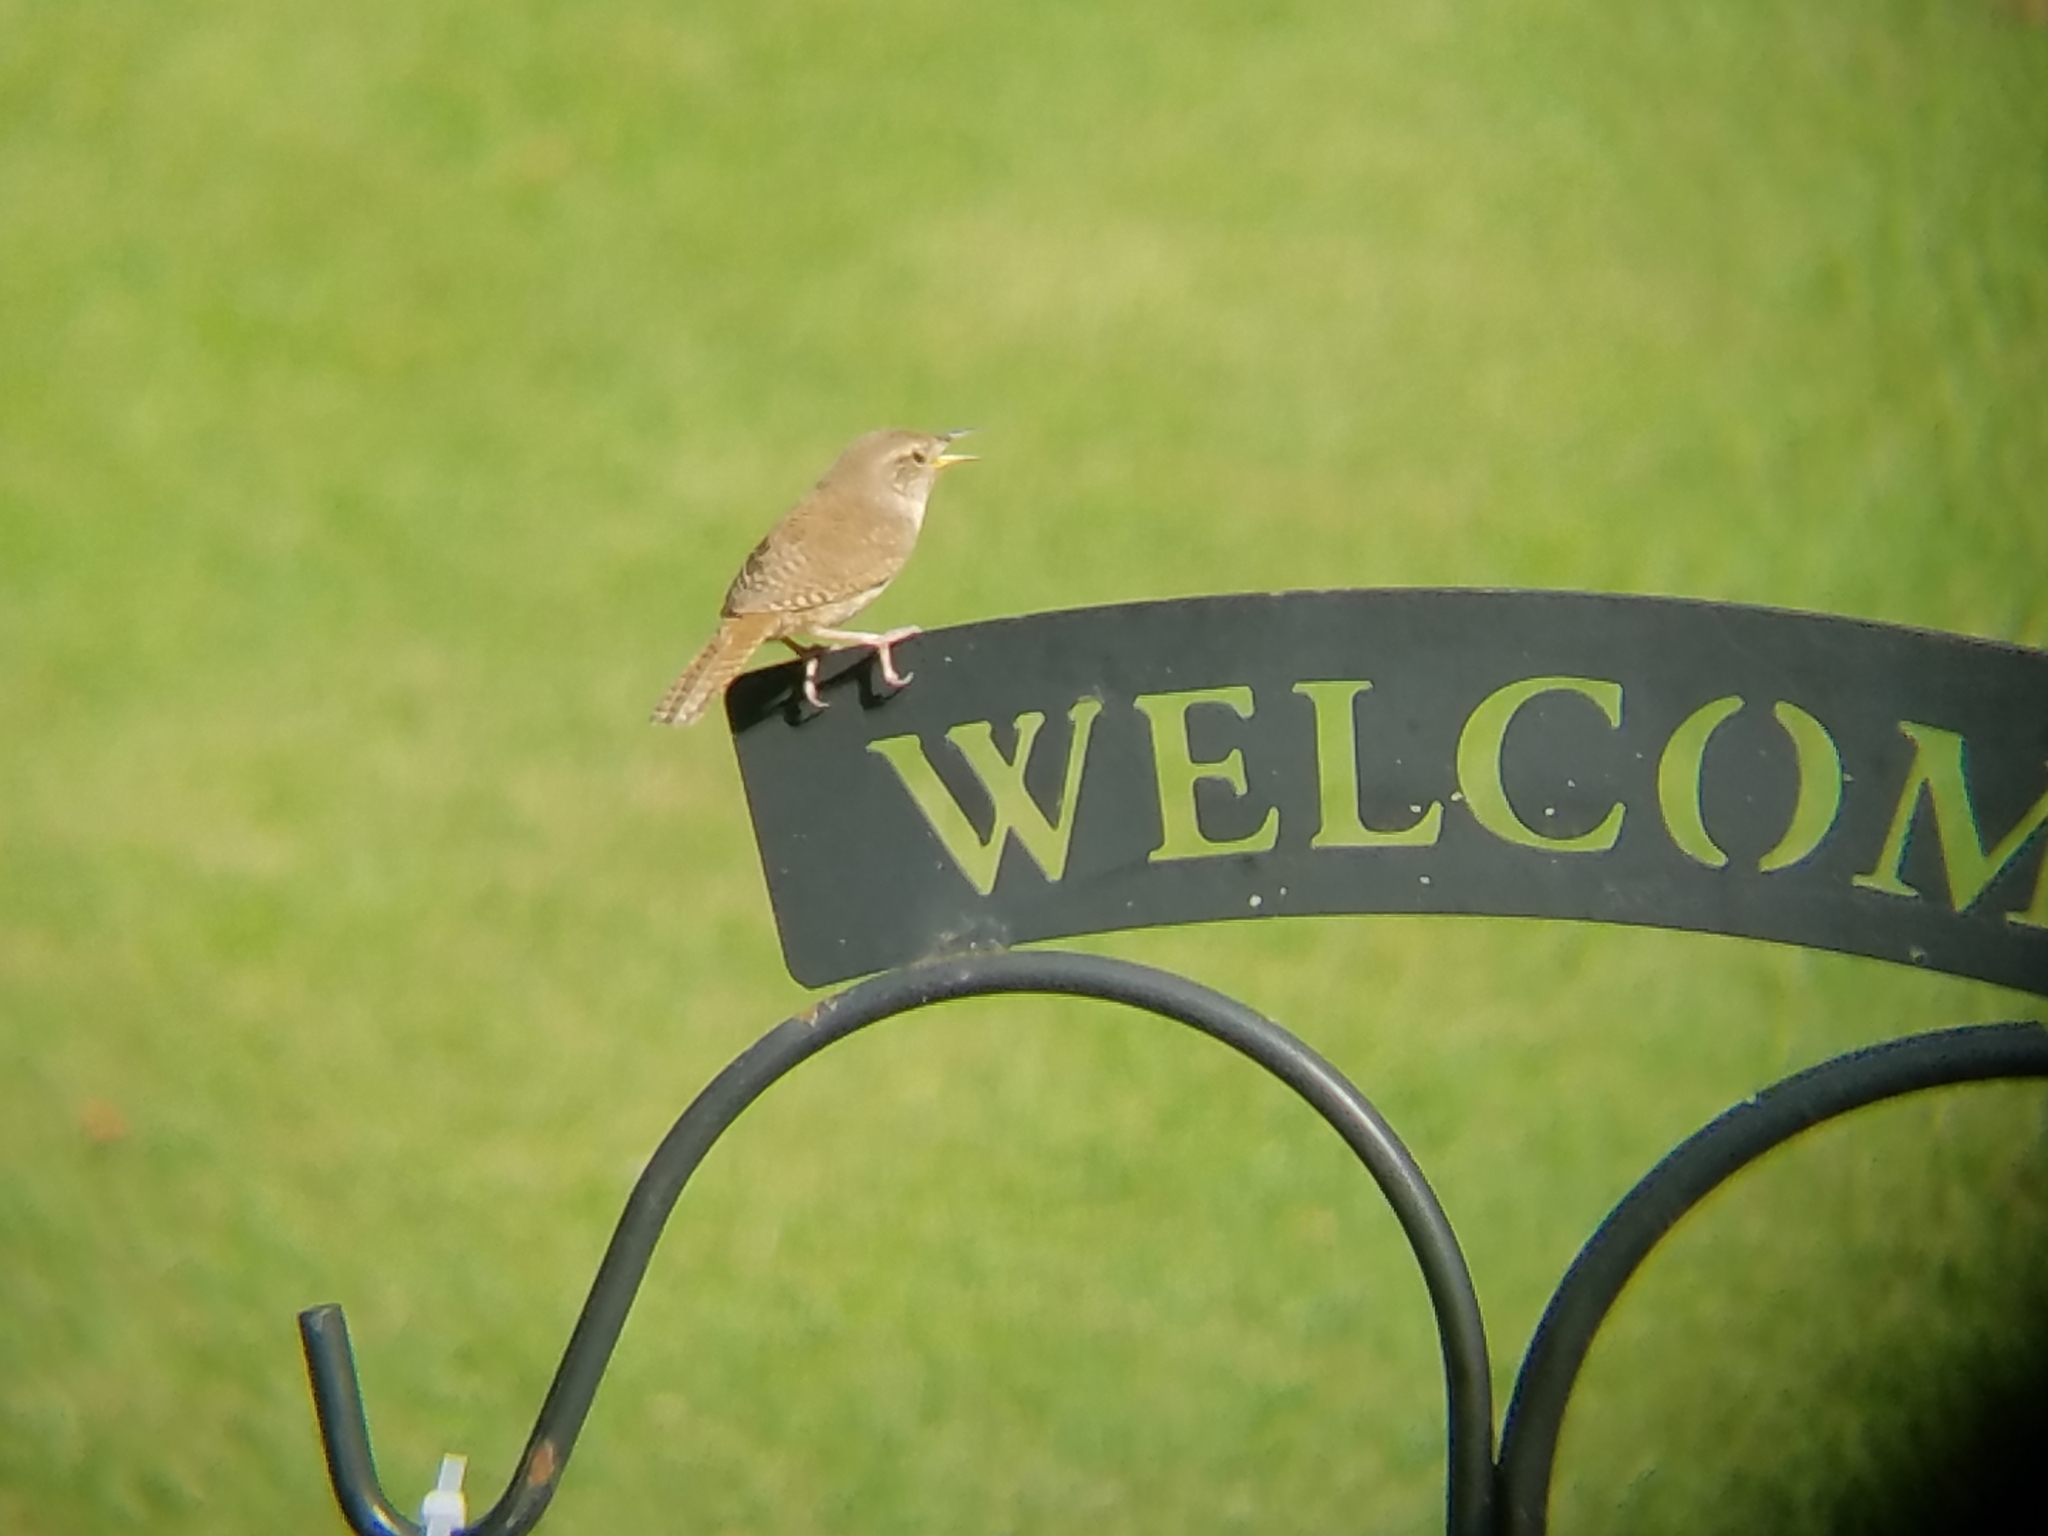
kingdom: Animalia
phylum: Chordata
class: Aves
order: Passeriformes
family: Troglodytidae
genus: Troglodytes
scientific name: Troglodytes aedon
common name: House wren
